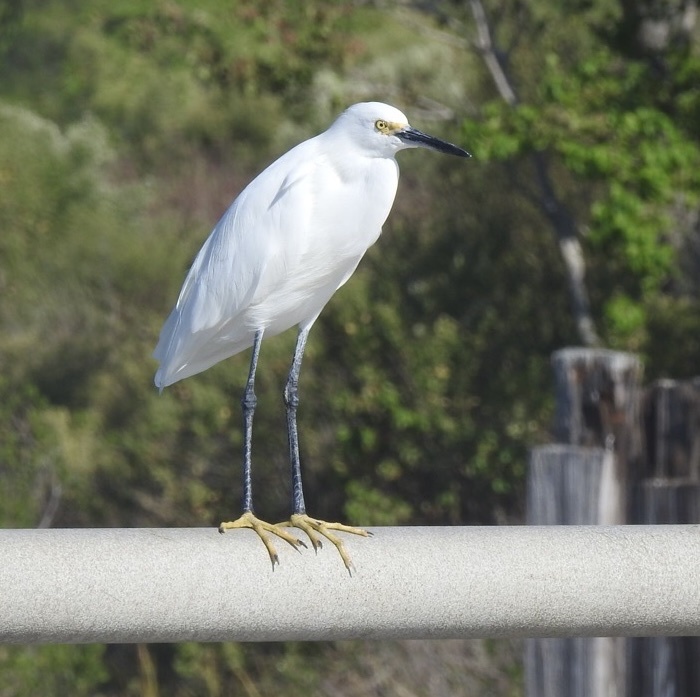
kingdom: Animalia
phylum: Chordata
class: Aves
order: Pelecaniformes
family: Ardeidae
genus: Egretta
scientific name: Egretta thula
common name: Snowy egret
